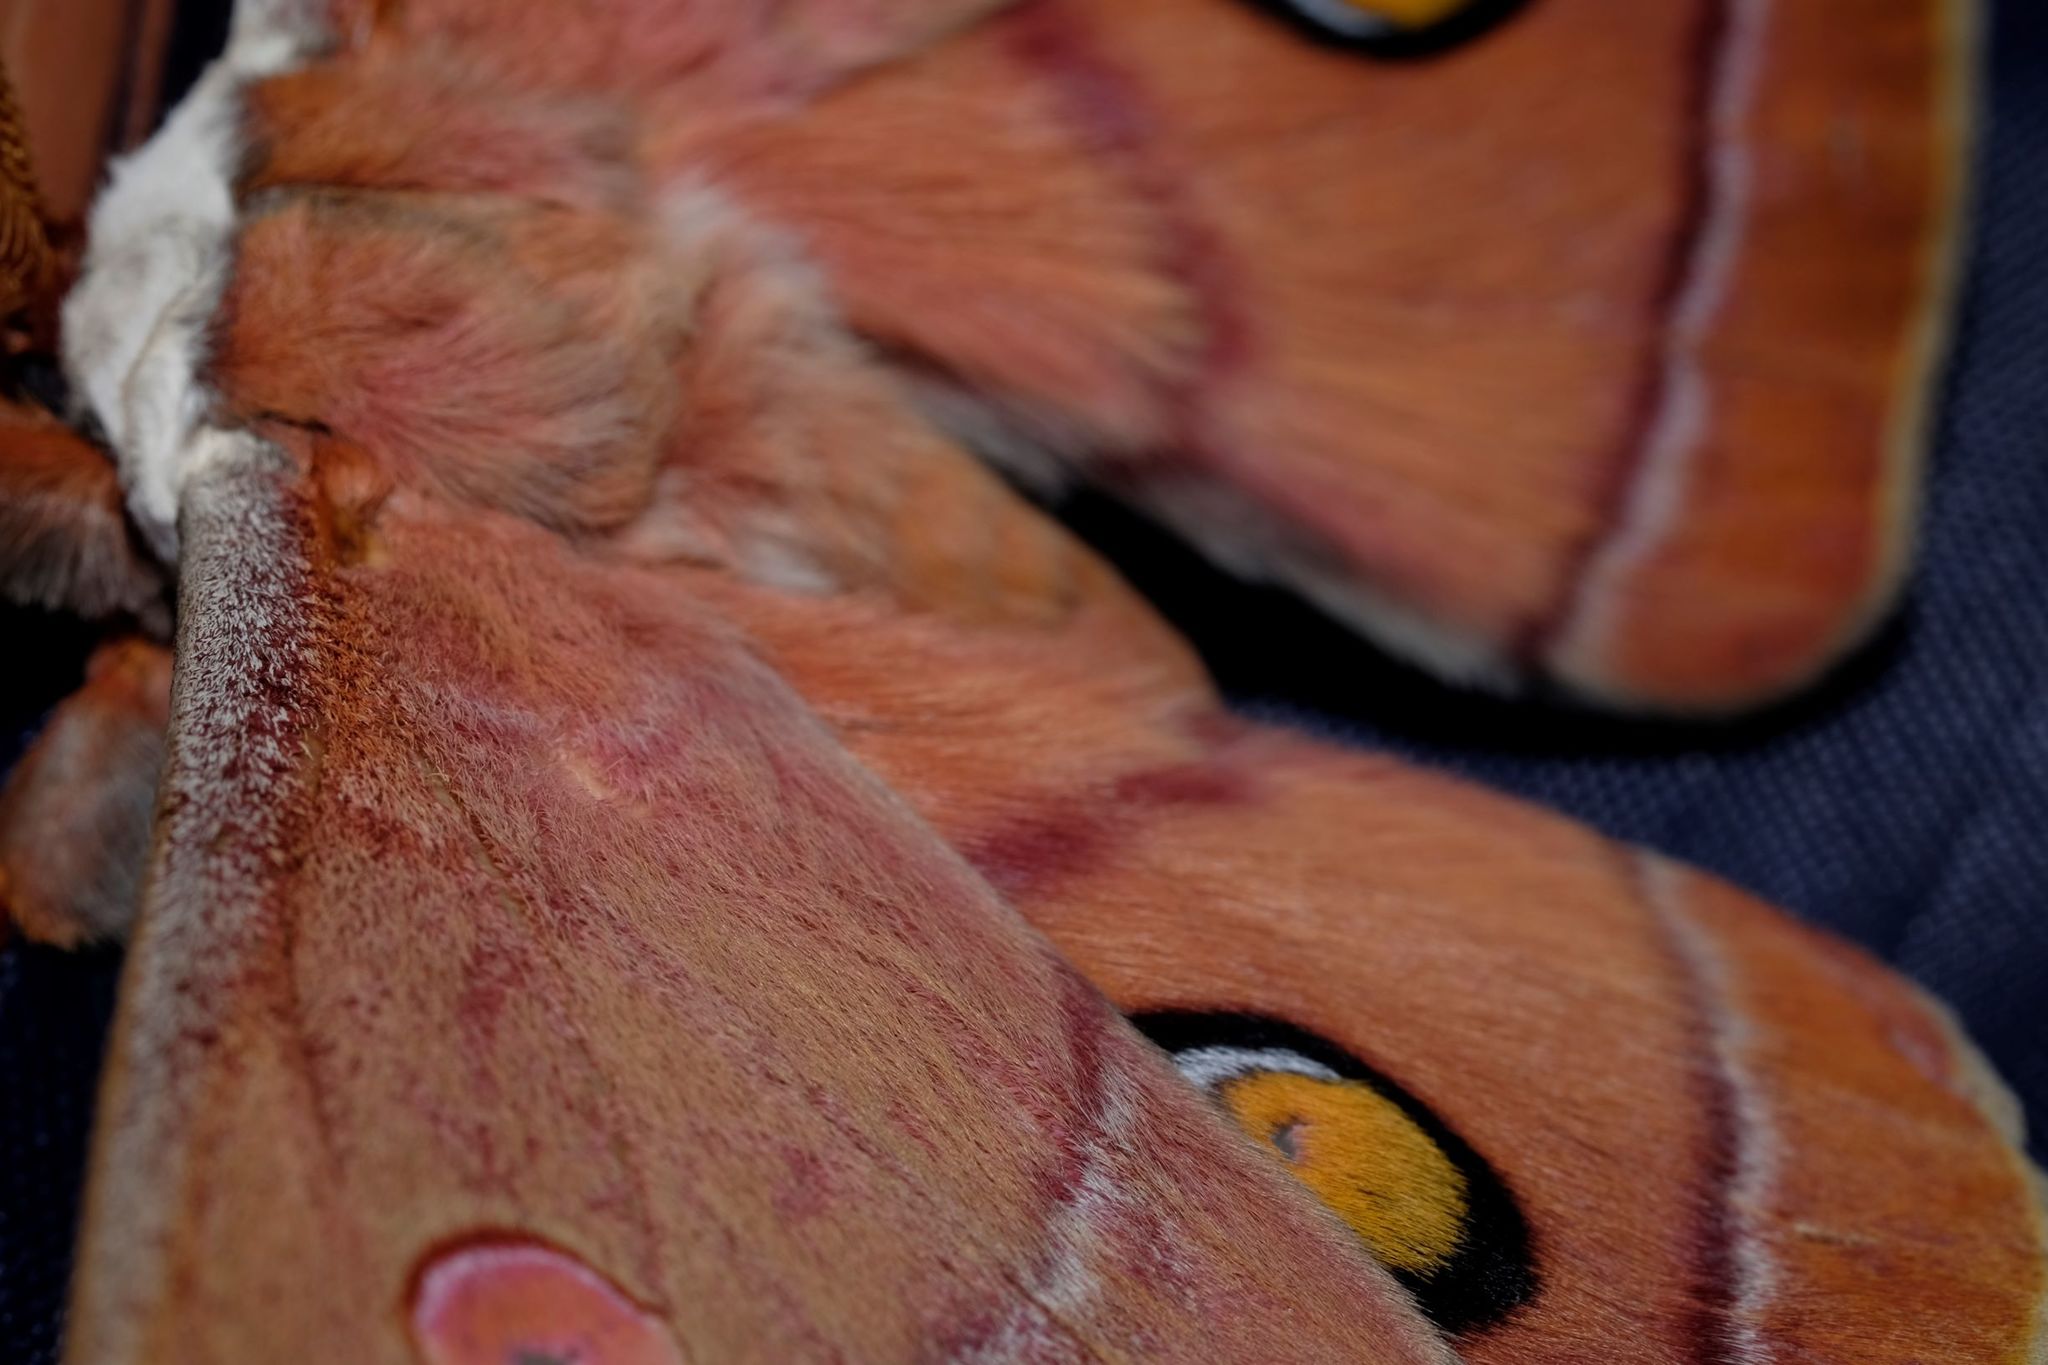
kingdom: Animalia
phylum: Arthropoda
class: Insecta
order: Lepidoptera
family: Saturniidae
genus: Opodiphthera
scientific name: Opodiphthera
